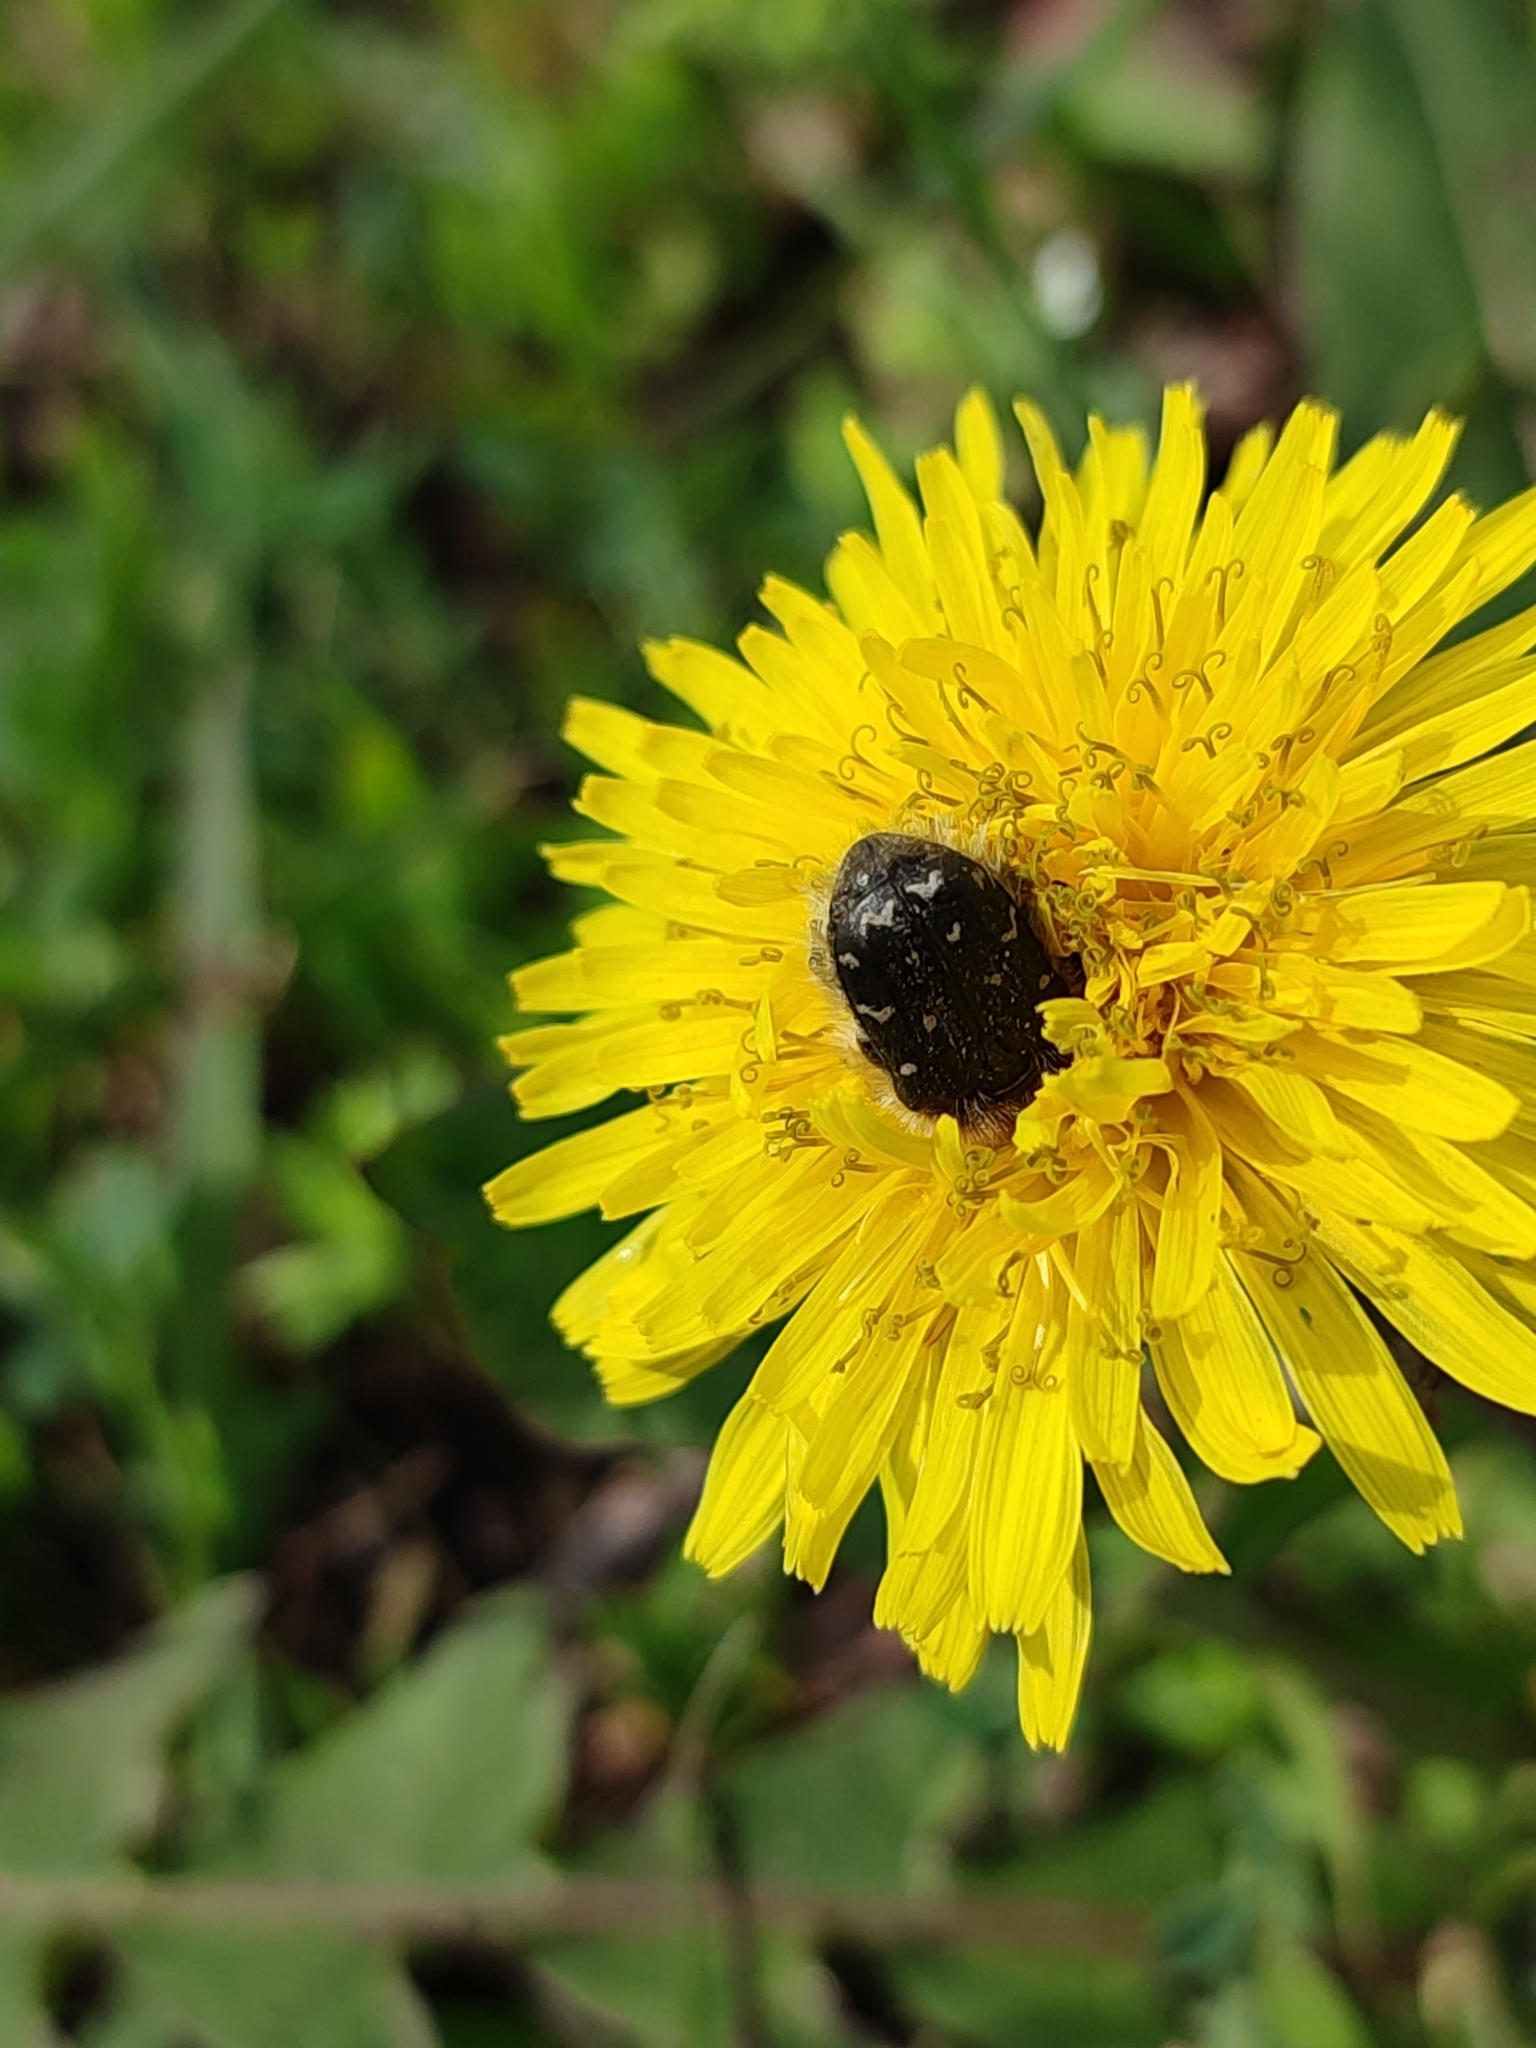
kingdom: Animalia
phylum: Arthropoda
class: Insecta
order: Coleoptera
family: Scarabaeidae
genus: Tropinota
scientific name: Tropinota hirta
